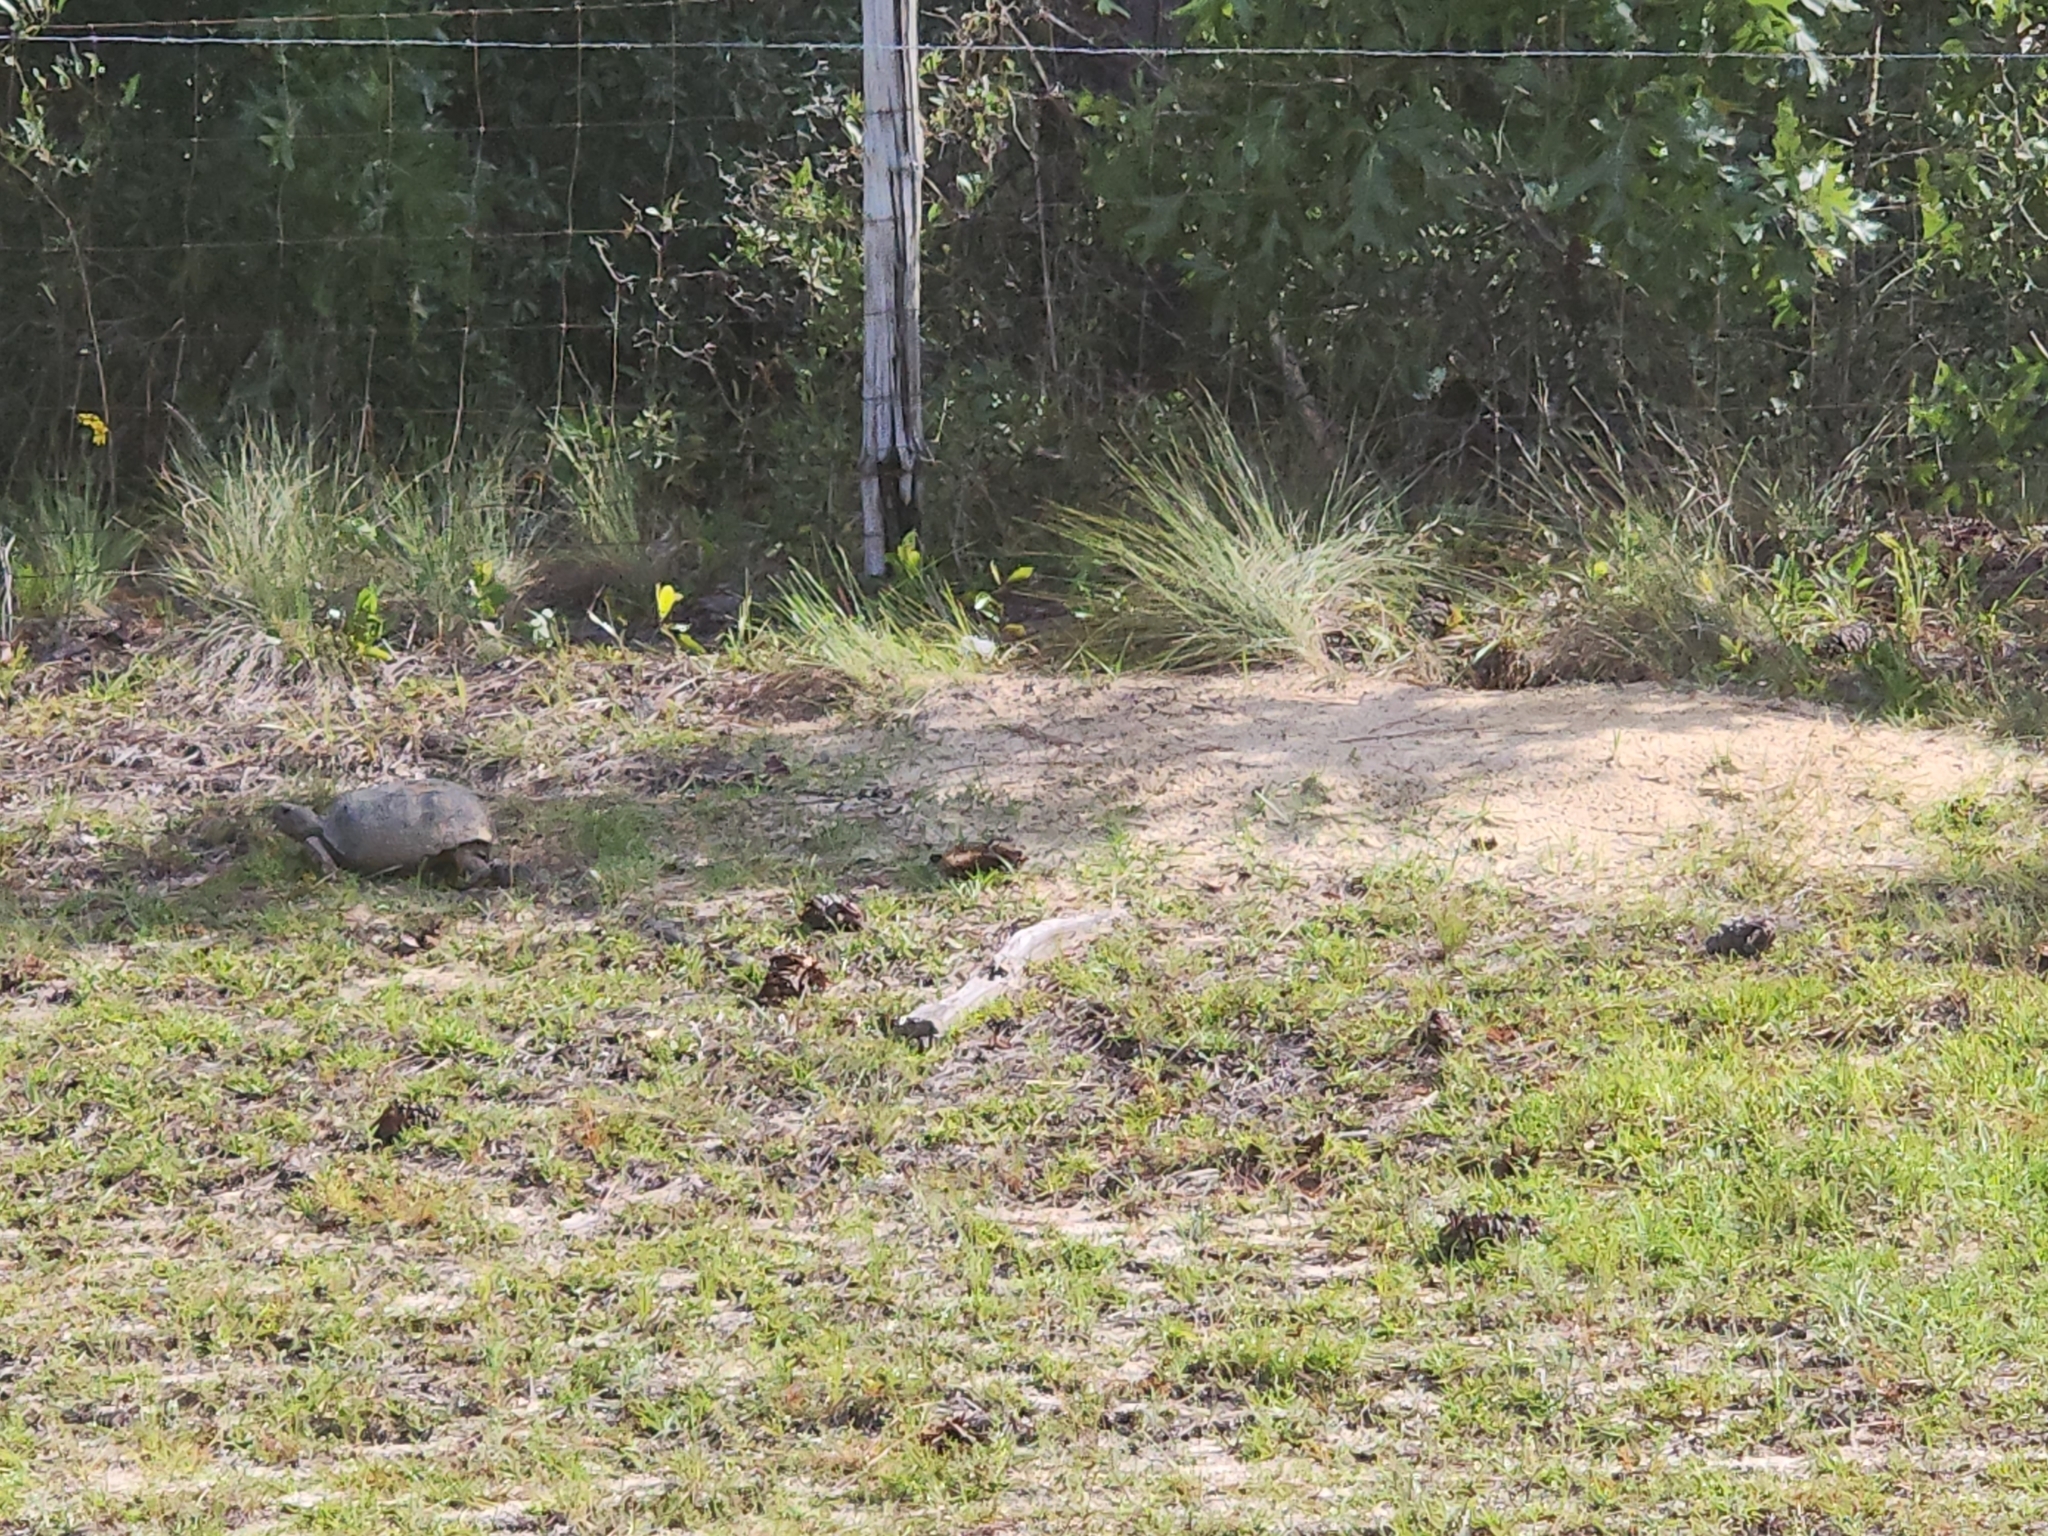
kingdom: Animalia
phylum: Chordata
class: Testudines
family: Testudinidae
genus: Gopherus
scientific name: Gopherus polyphemus
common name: Florida gopher tortoise
